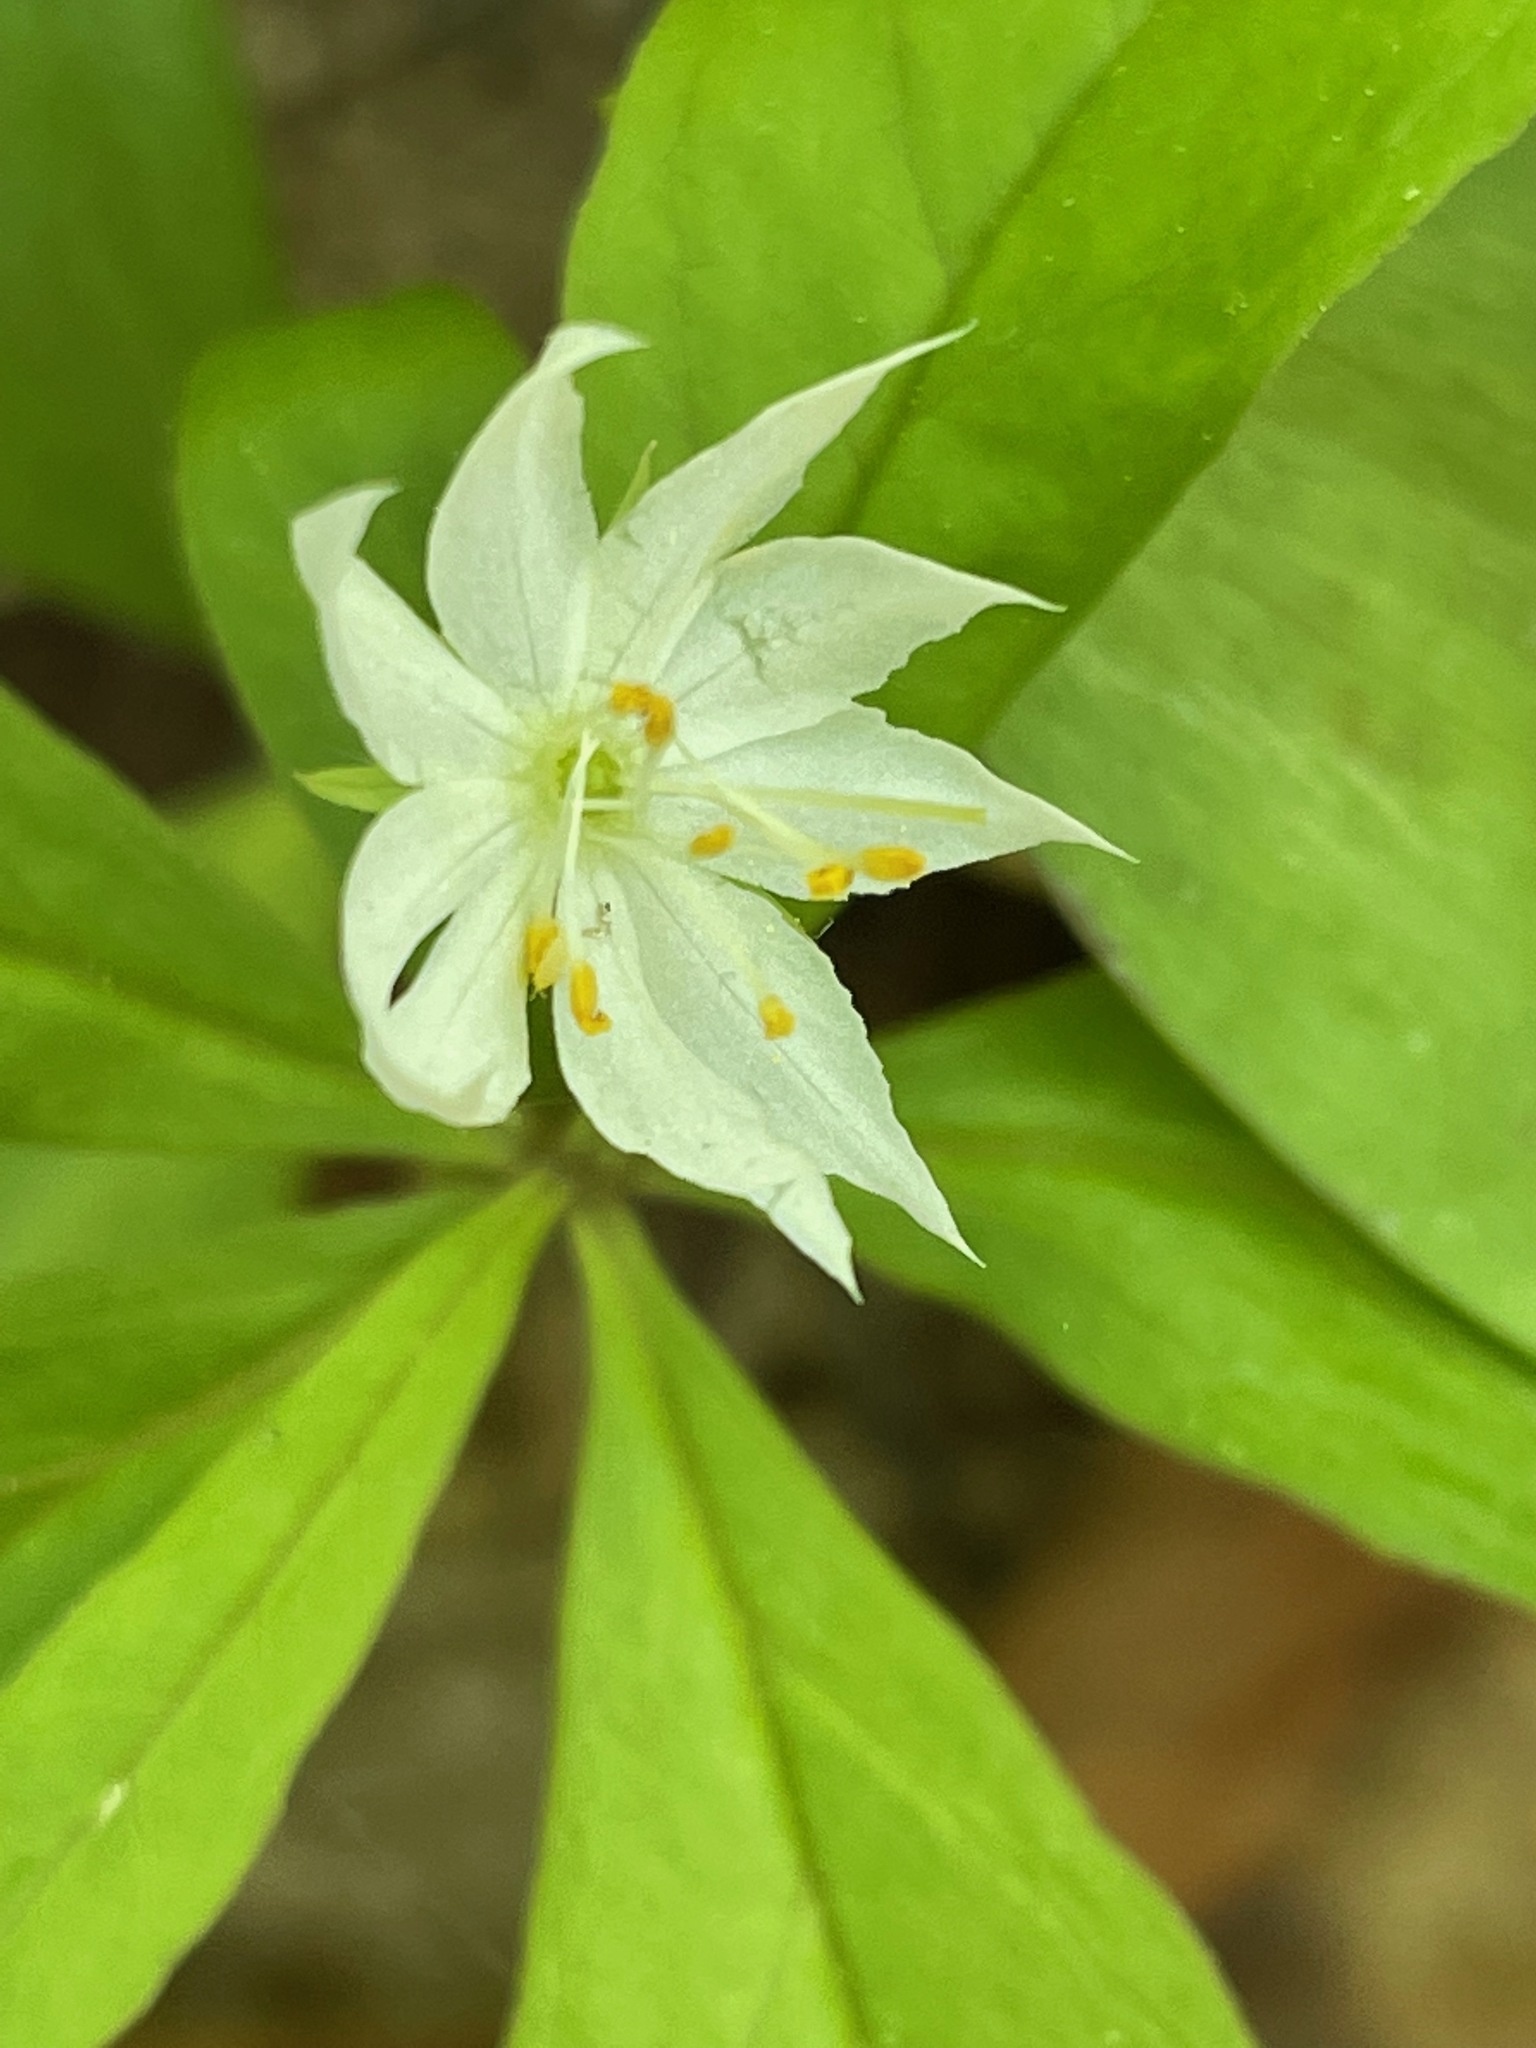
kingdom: Plantae
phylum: Tracheophyta
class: Magnoliopsida
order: Ericales
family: Primulaceae
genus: Lysimachia
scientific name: Lysimachia borealis
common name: American starflower
